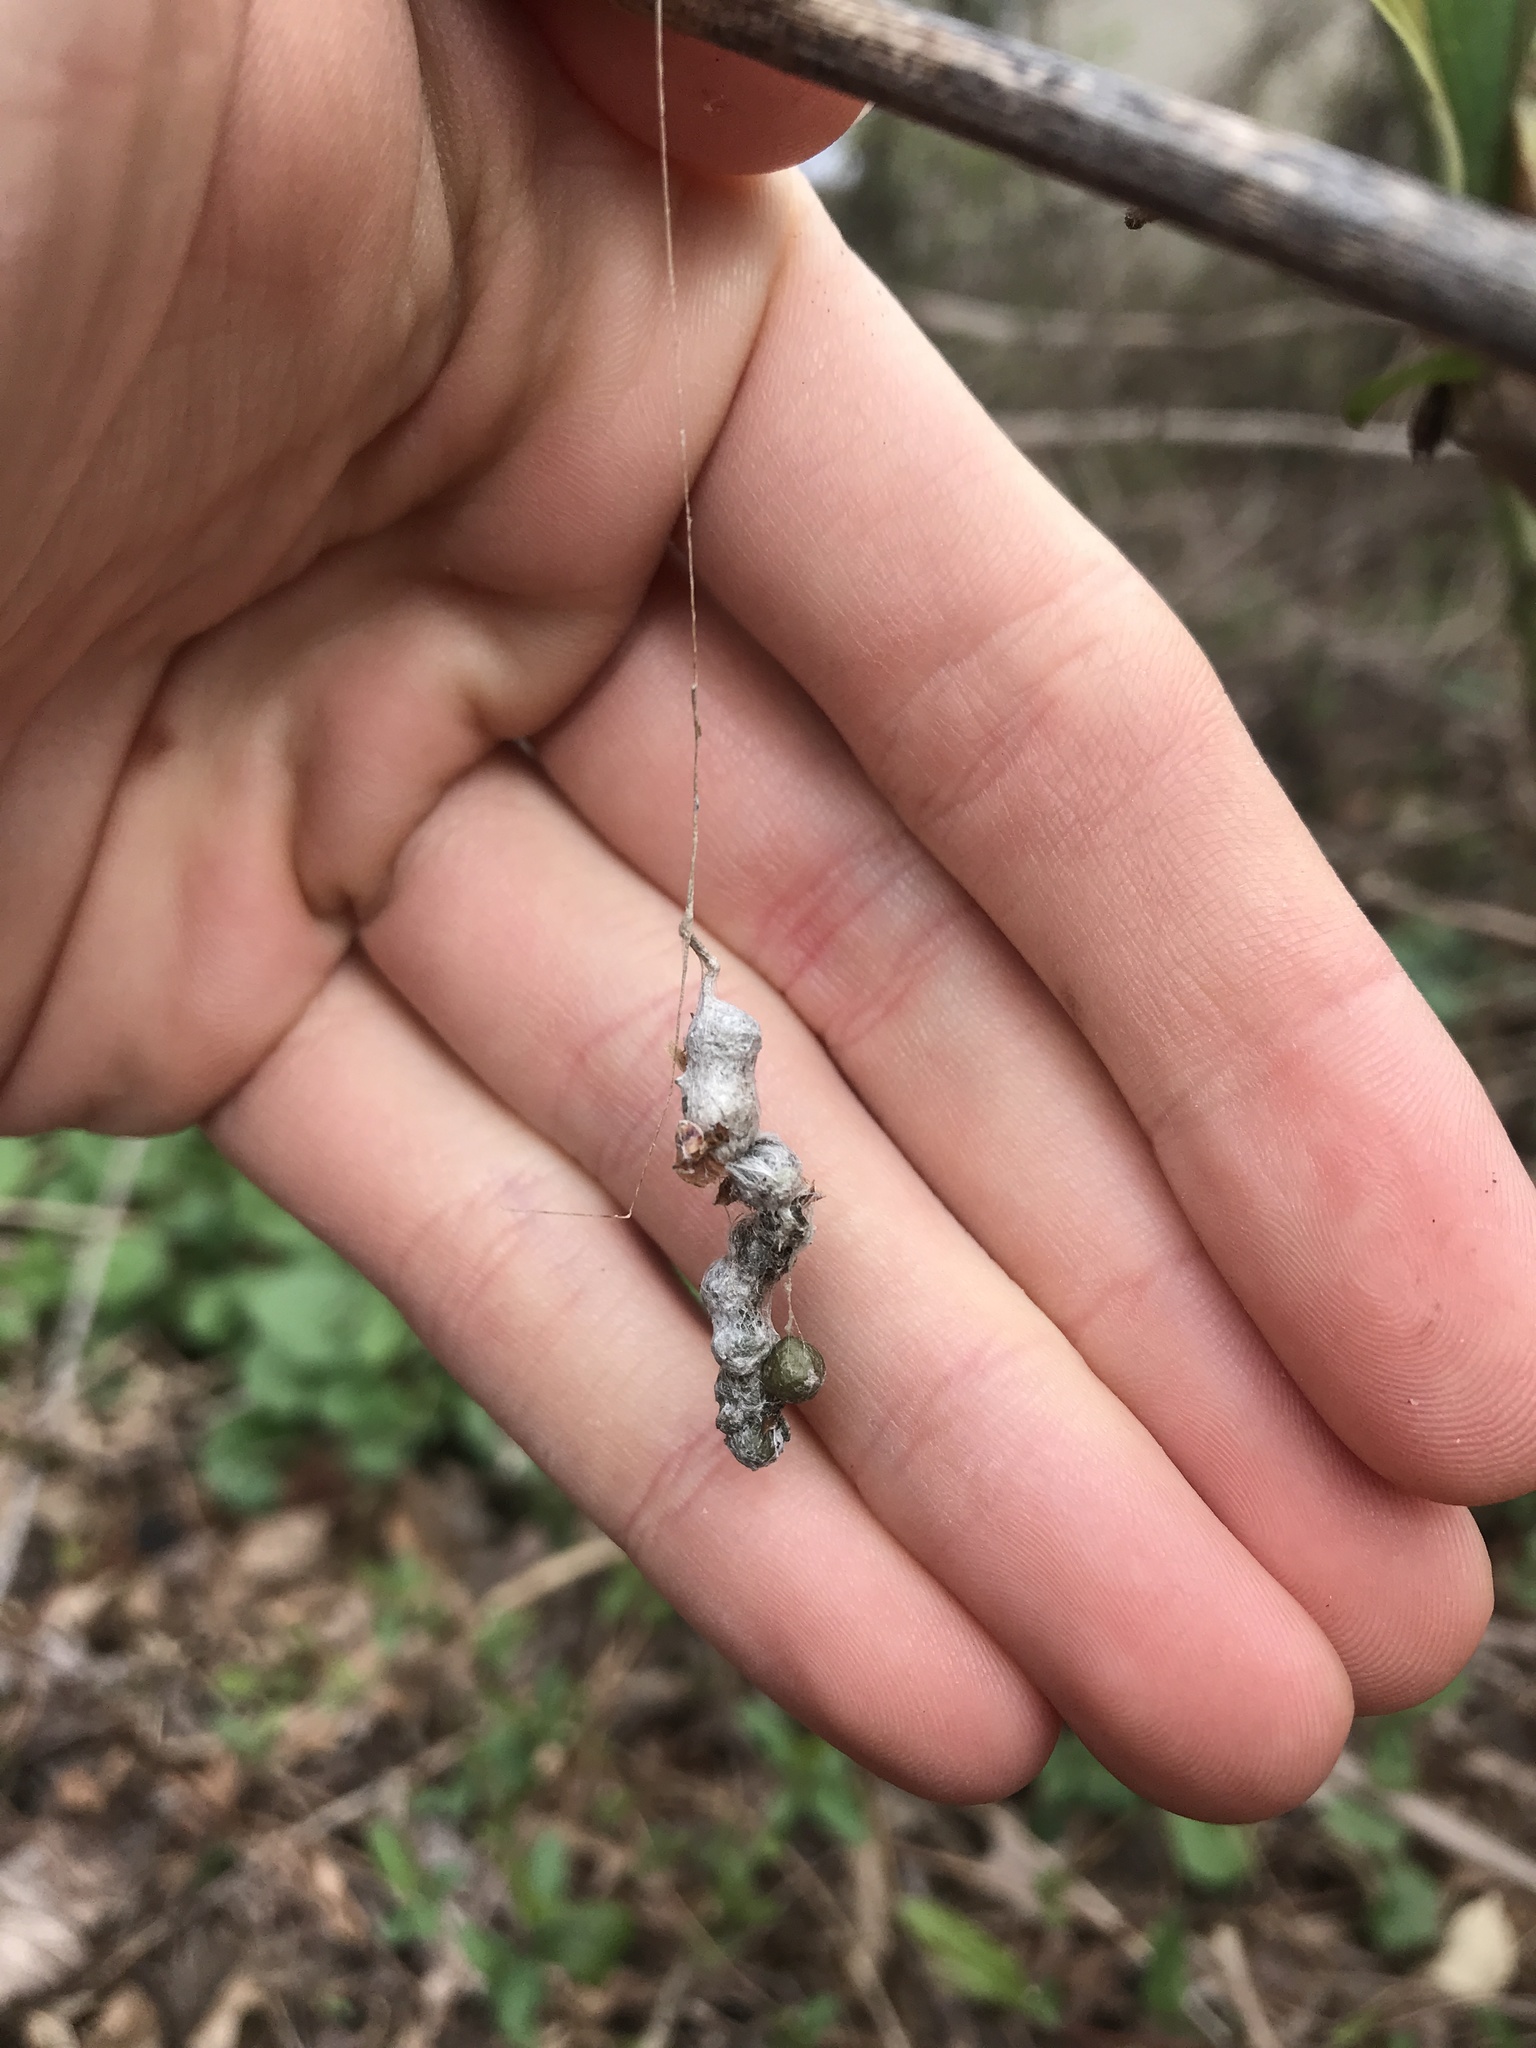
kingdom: Animalia
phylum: Arthropoda
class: Arachnida
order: Araneae
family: Araneidae
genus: Mecynogea
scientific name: Mecynogea lemniscata
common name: Orb weavers
